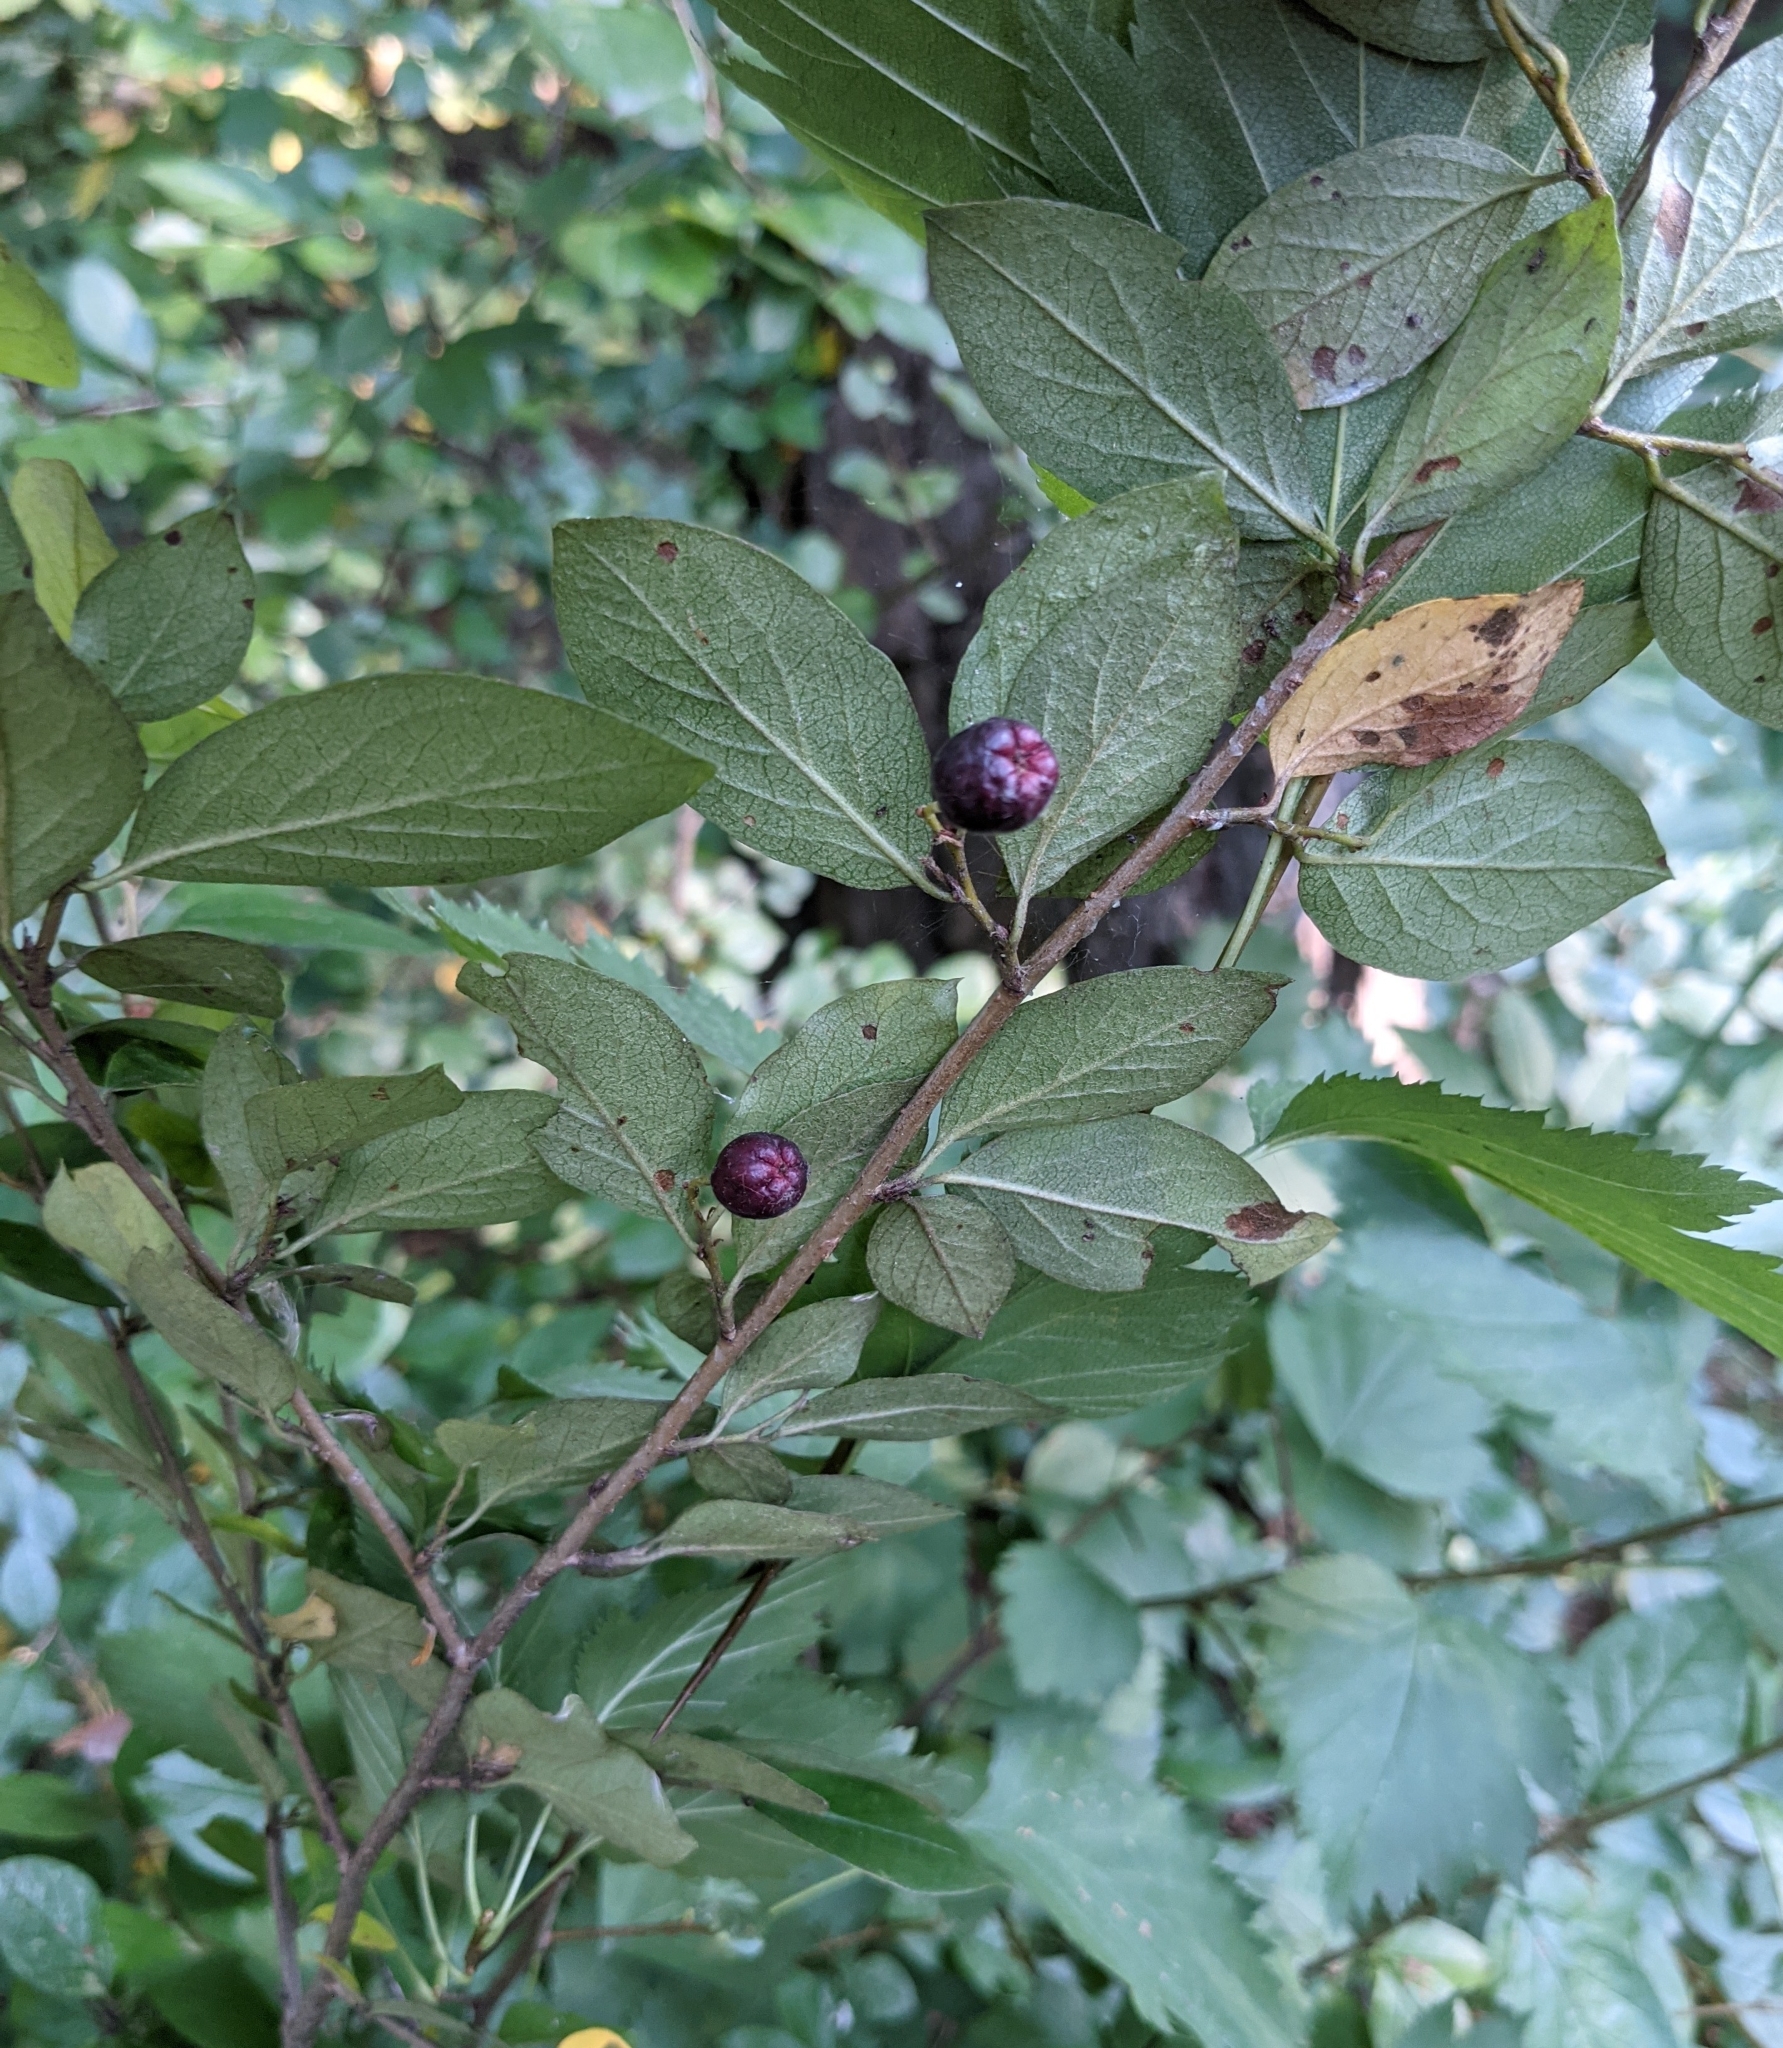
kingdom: Plantae
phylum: Tracheophyta
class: Magnoliopsida
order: Rosales
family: Rosaceae
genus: Cotoneaster
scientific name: Cotoneaster acutifolius
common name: Peking cotoneaster
